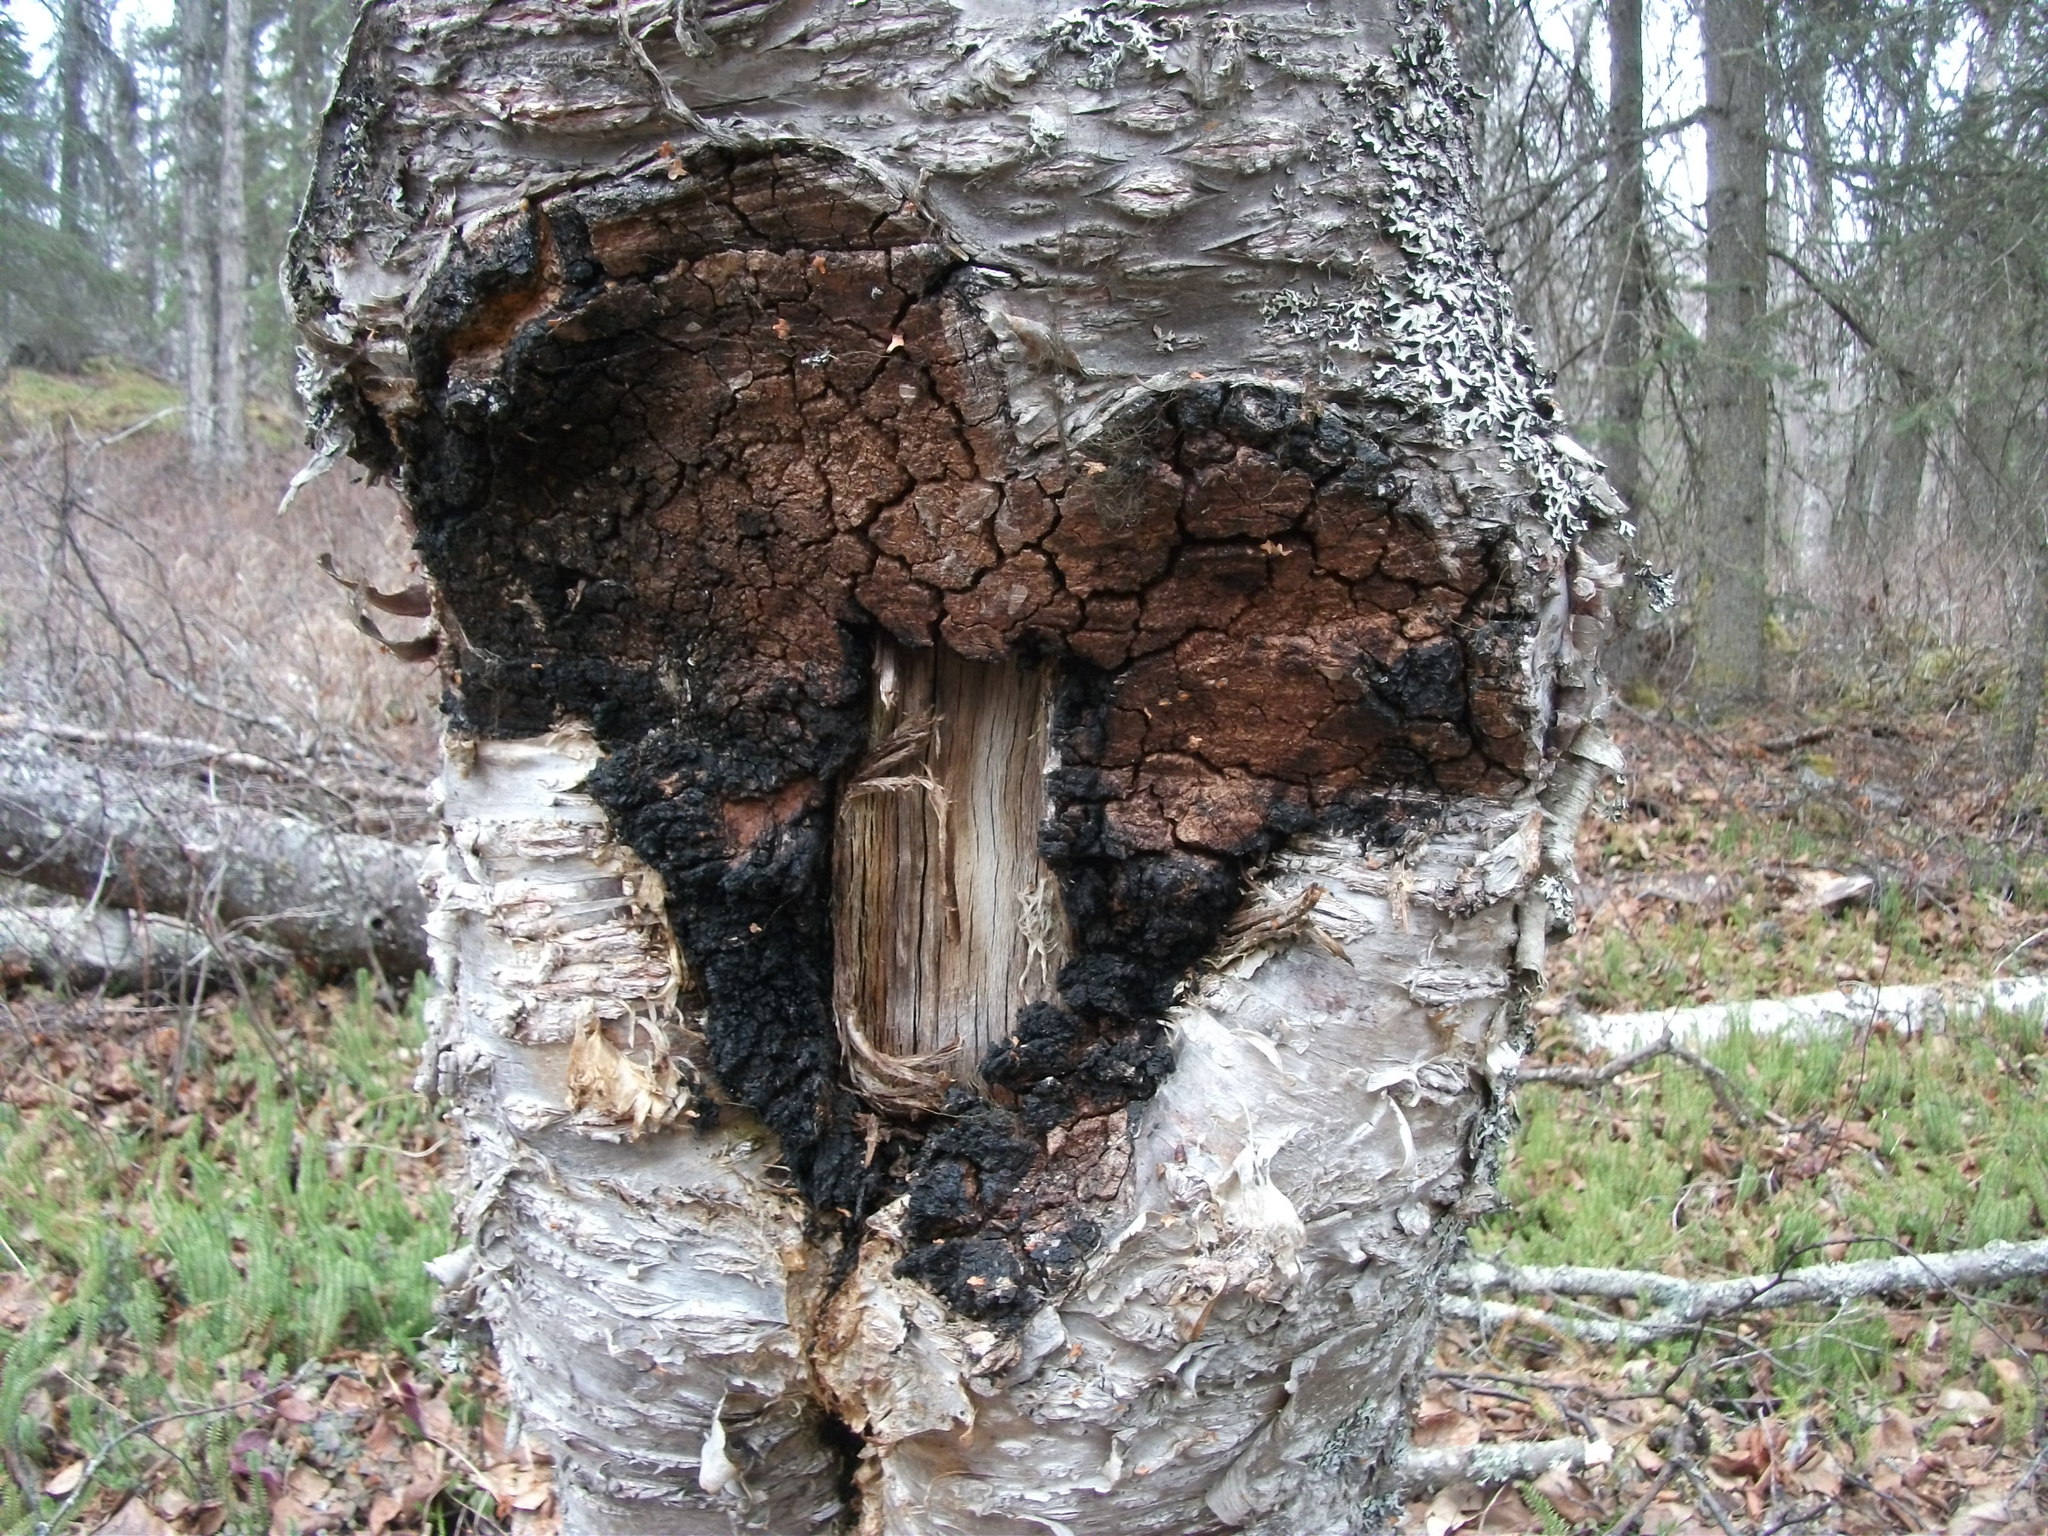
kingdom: Fungi
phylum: Basidiomycota
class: Agaricomycetes
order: Hymenochaetales
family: Hymenochaetaceae
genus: Inonotus
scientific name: Inonotus obliquus
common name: Chaga
